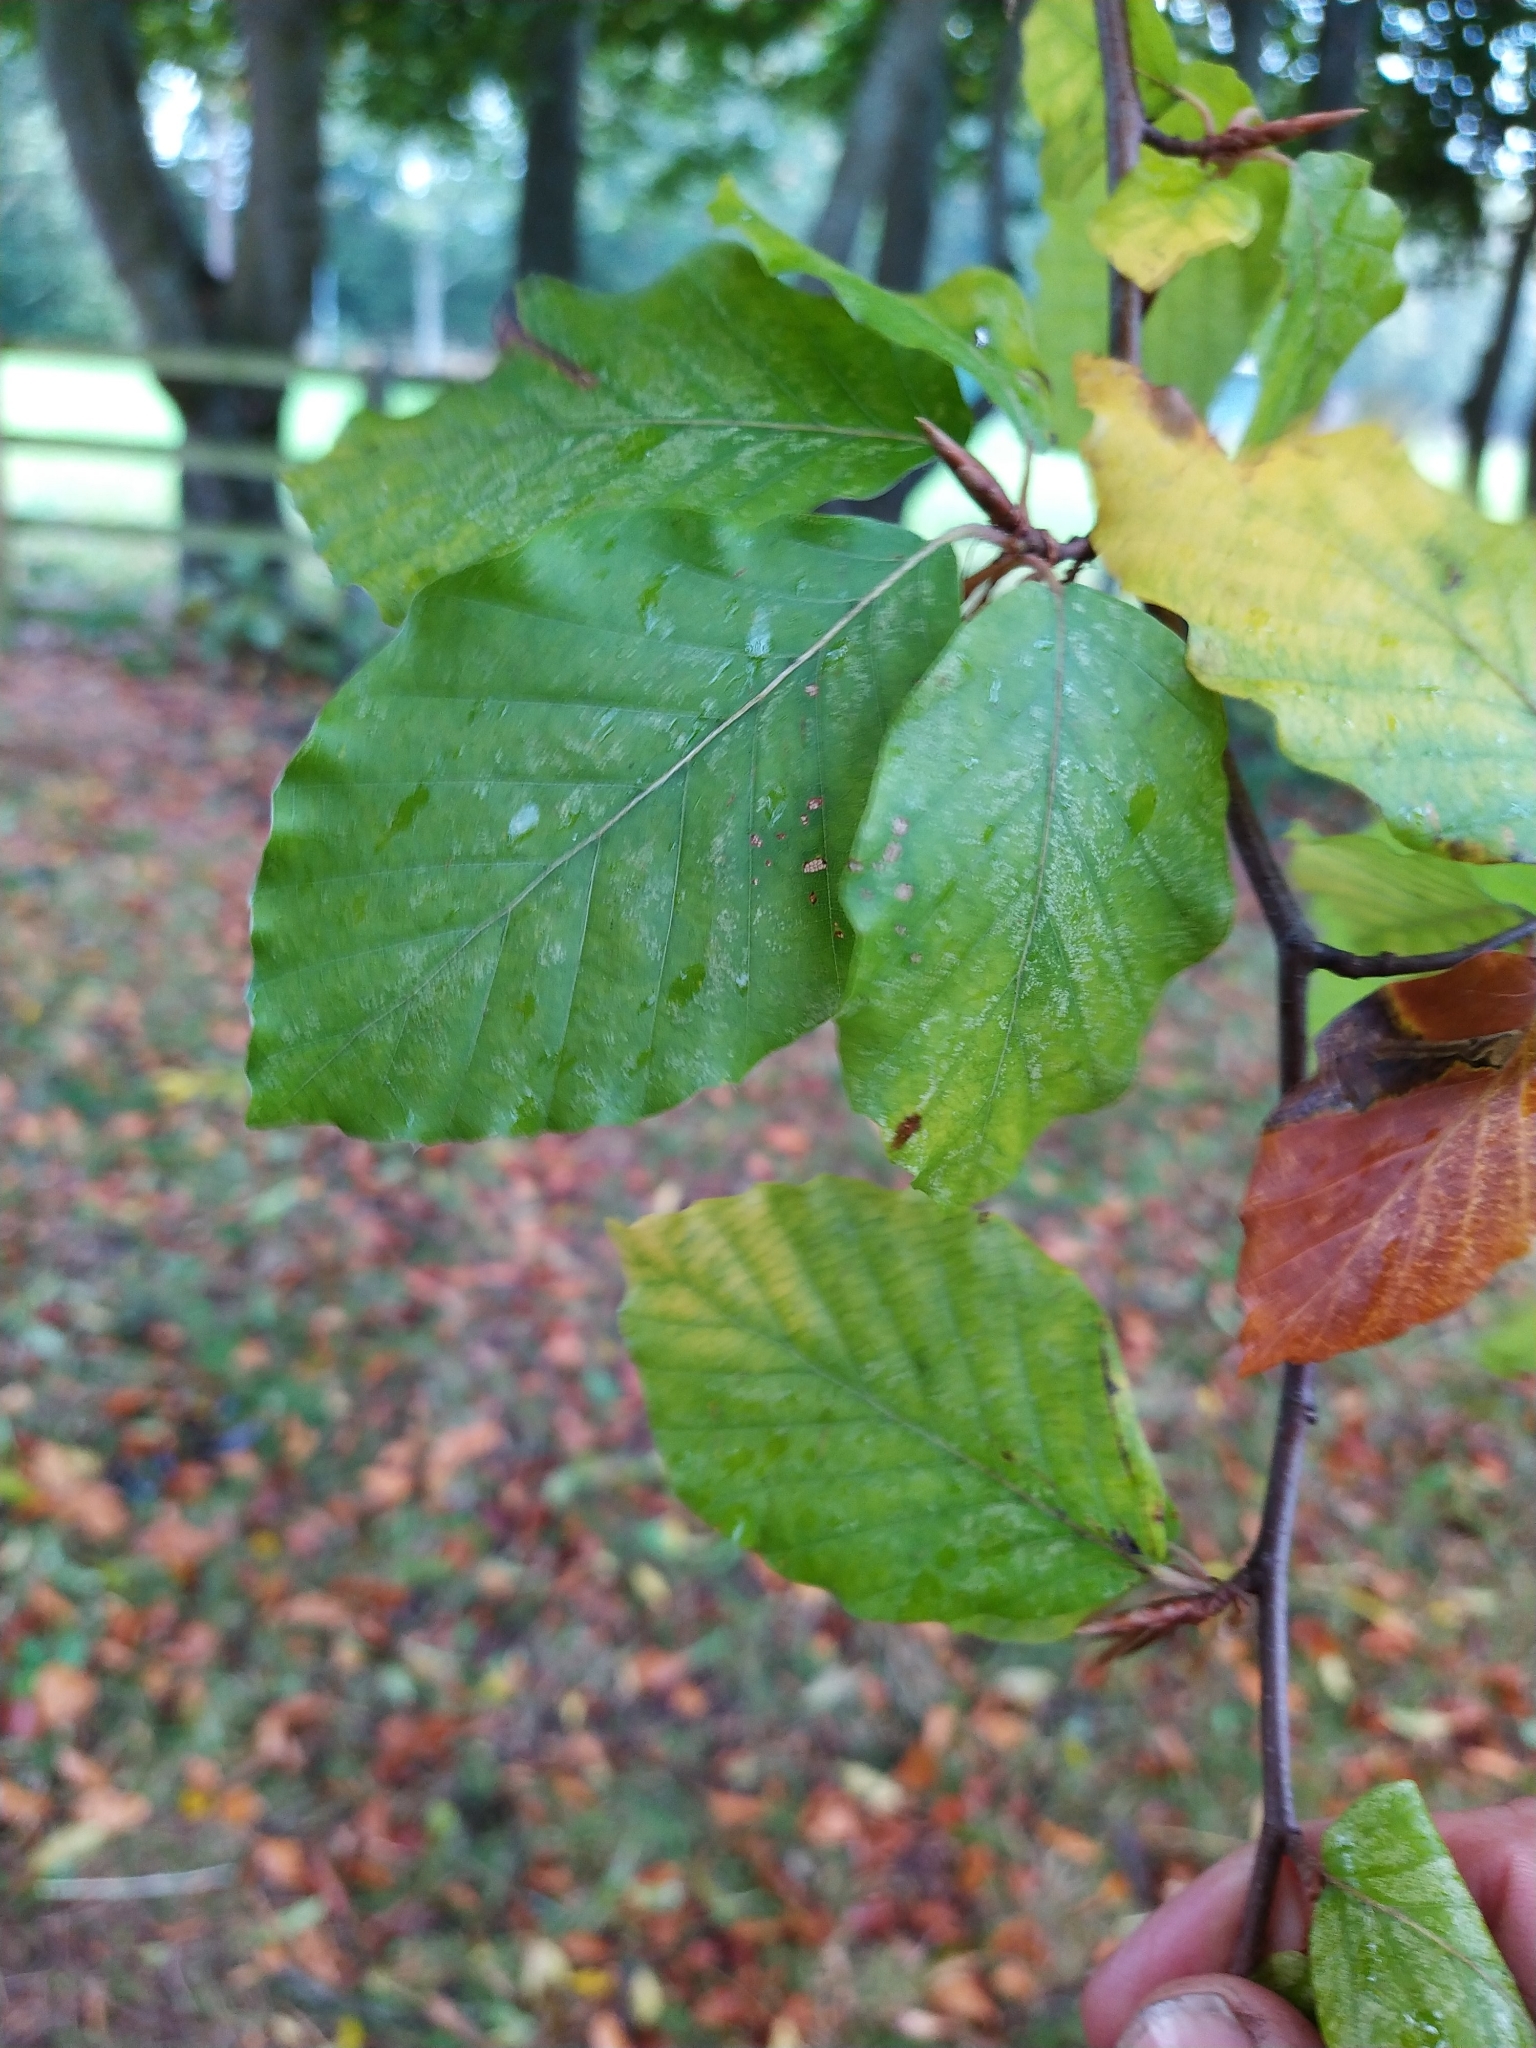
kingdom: Plantae
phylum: Tracheophyta
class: Magnoliopsida
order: Fagales
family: Fagaceae
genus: Fagus
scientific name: Fagus sylvatica
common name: Beech
